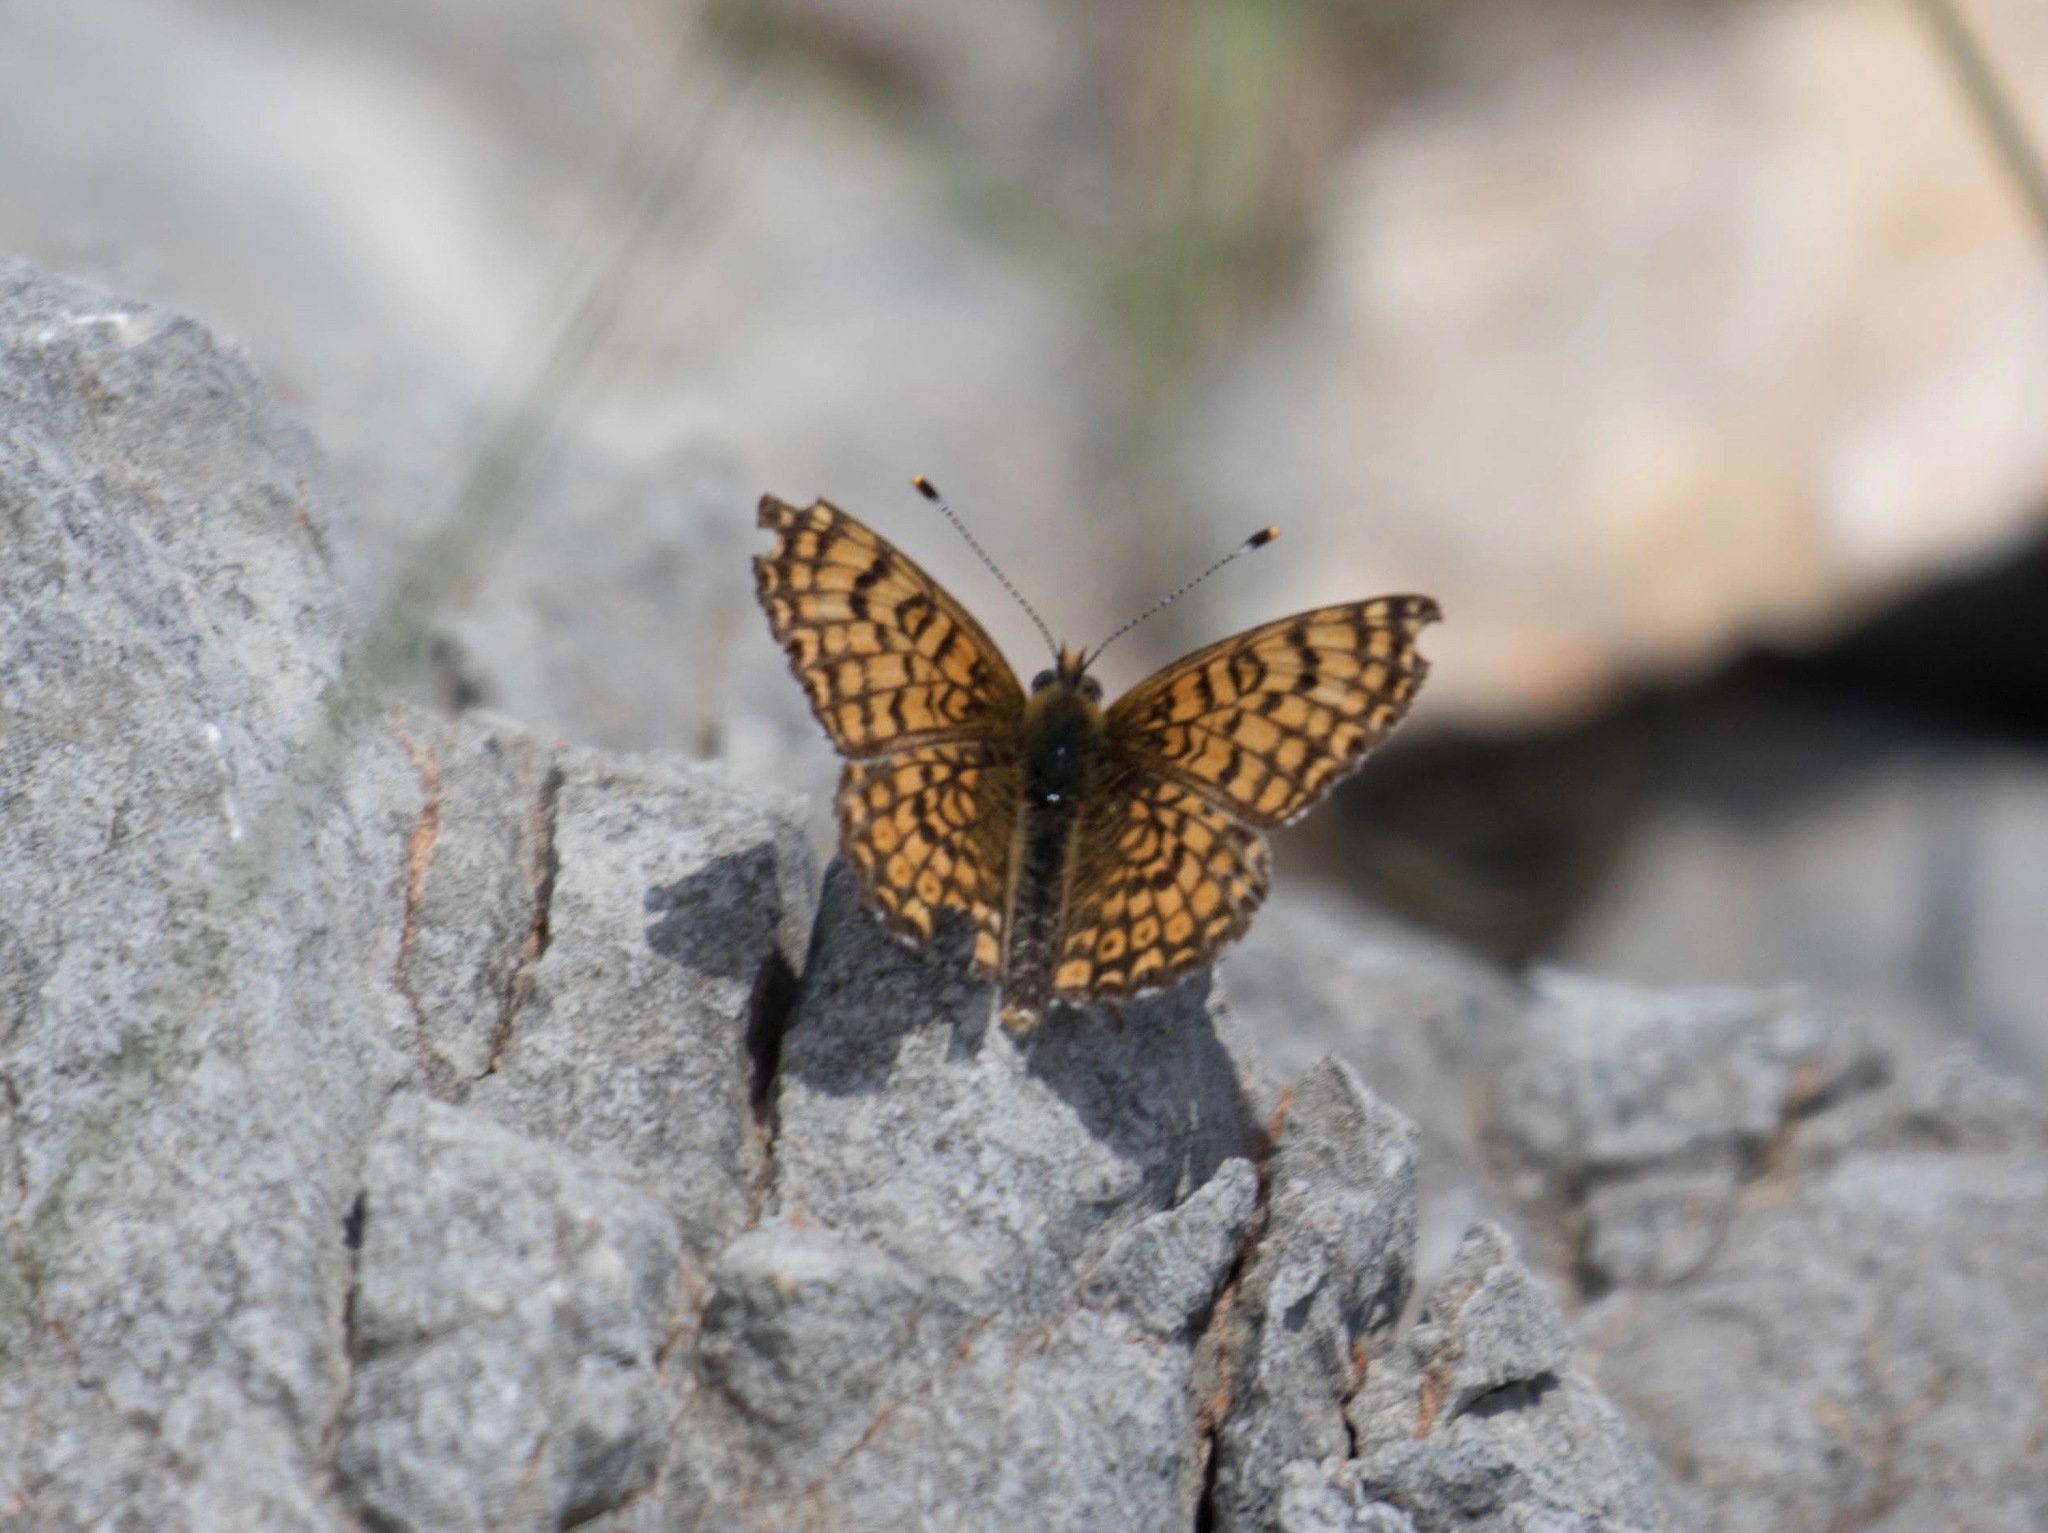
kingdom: Animalia
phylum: Arthropoda
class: Insecta
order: Lepidoptera
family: Nymphalidae
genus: Melitaea
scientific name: Melitaea cinxia
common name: Glanville fritillary
